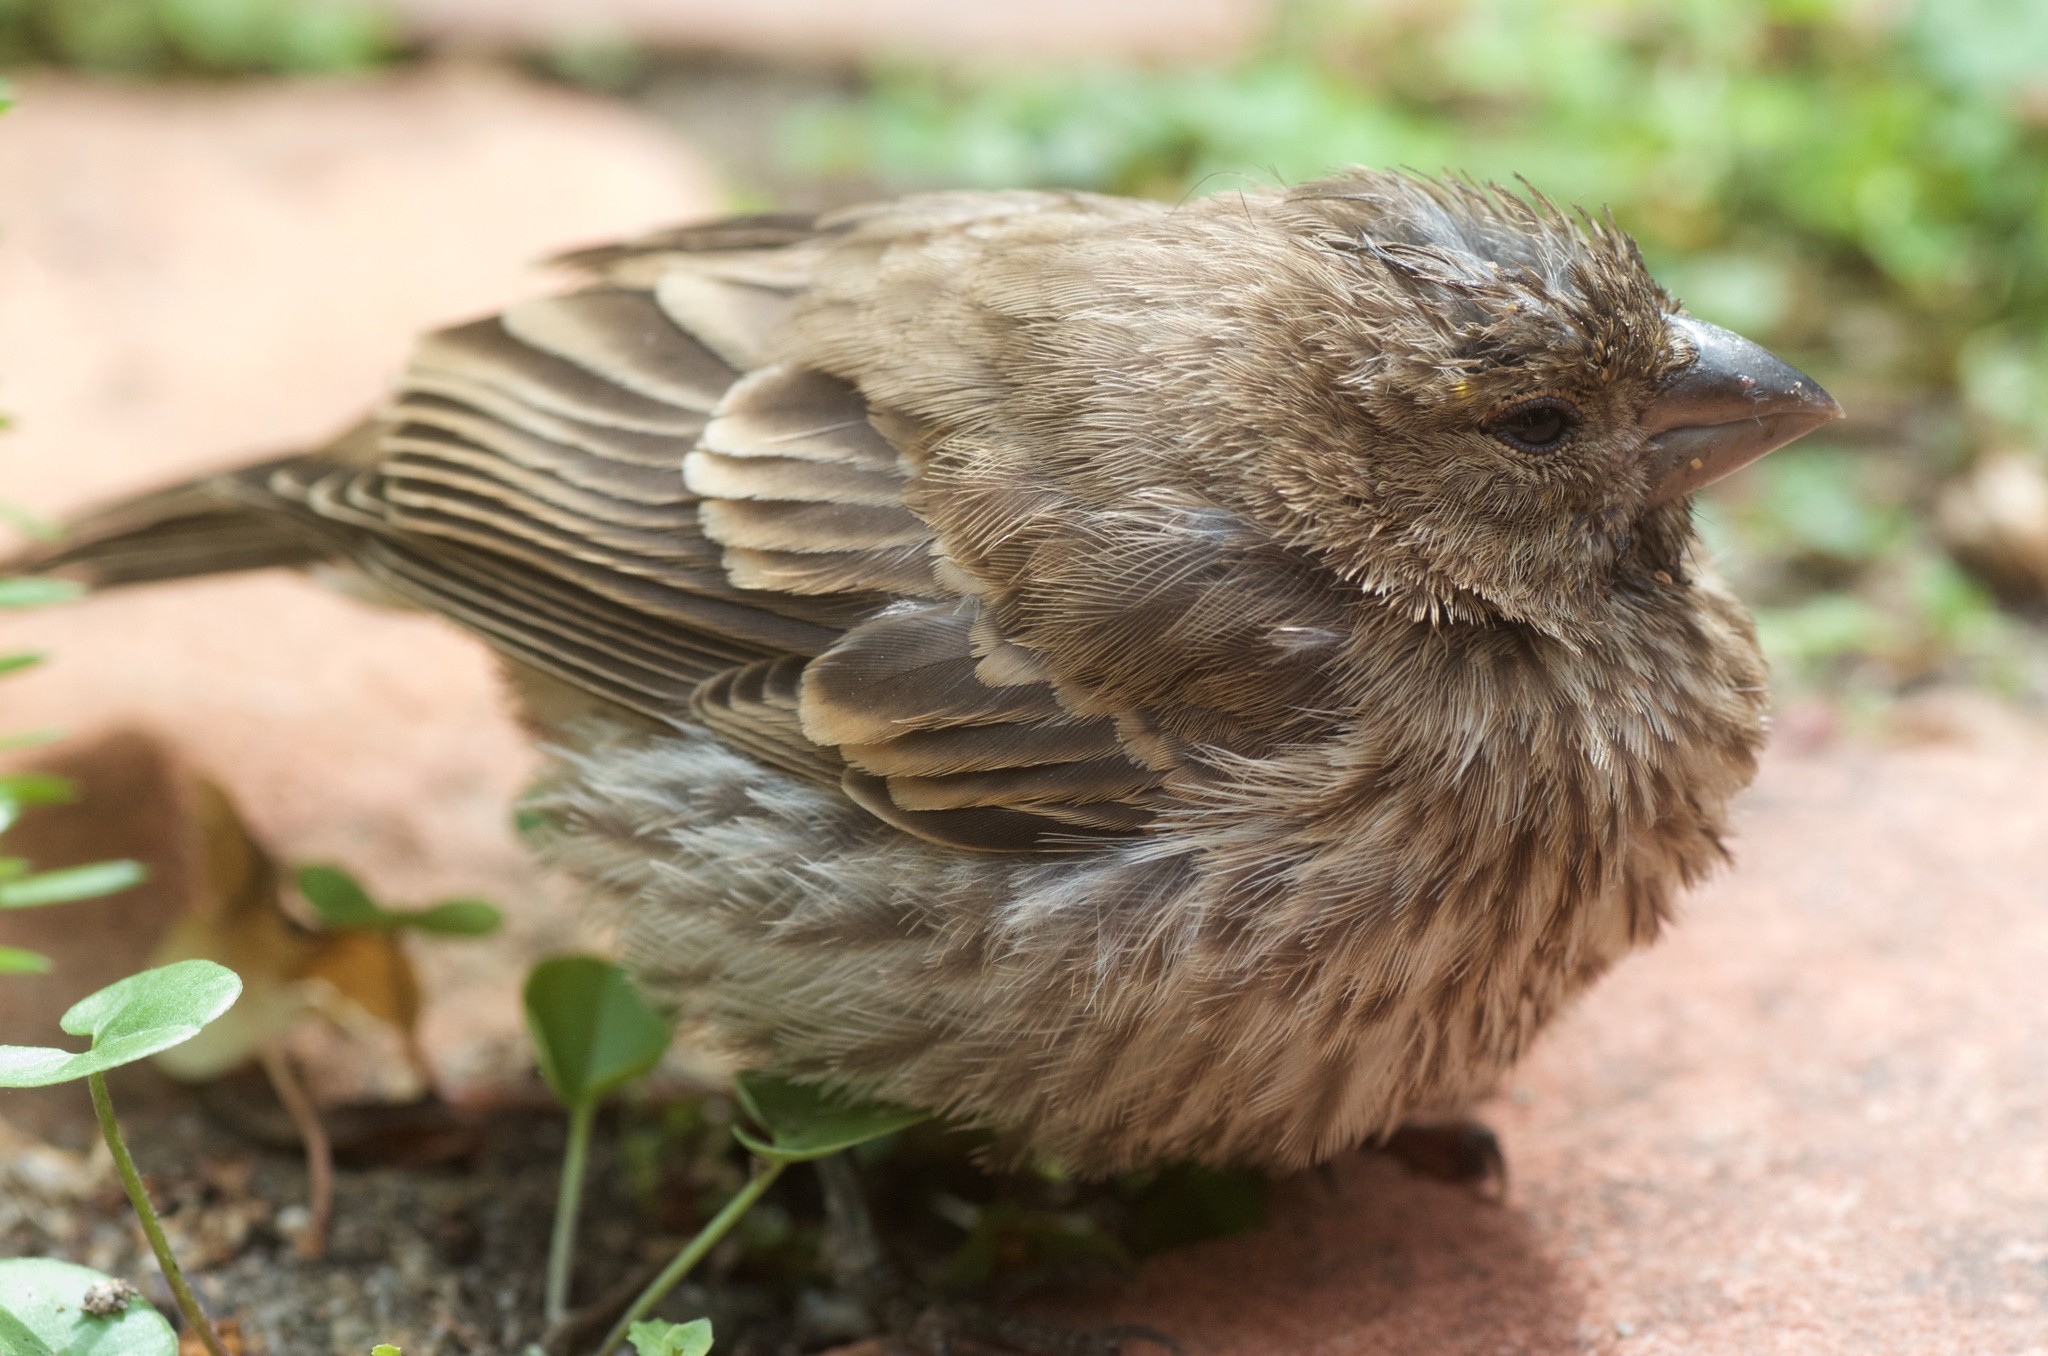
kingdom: Animalia
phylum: Chordata
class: Aves
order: Passeriformes
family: Fringillidae
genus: Haemorhous
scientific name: Haemorhous mexicanus
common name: House finch
